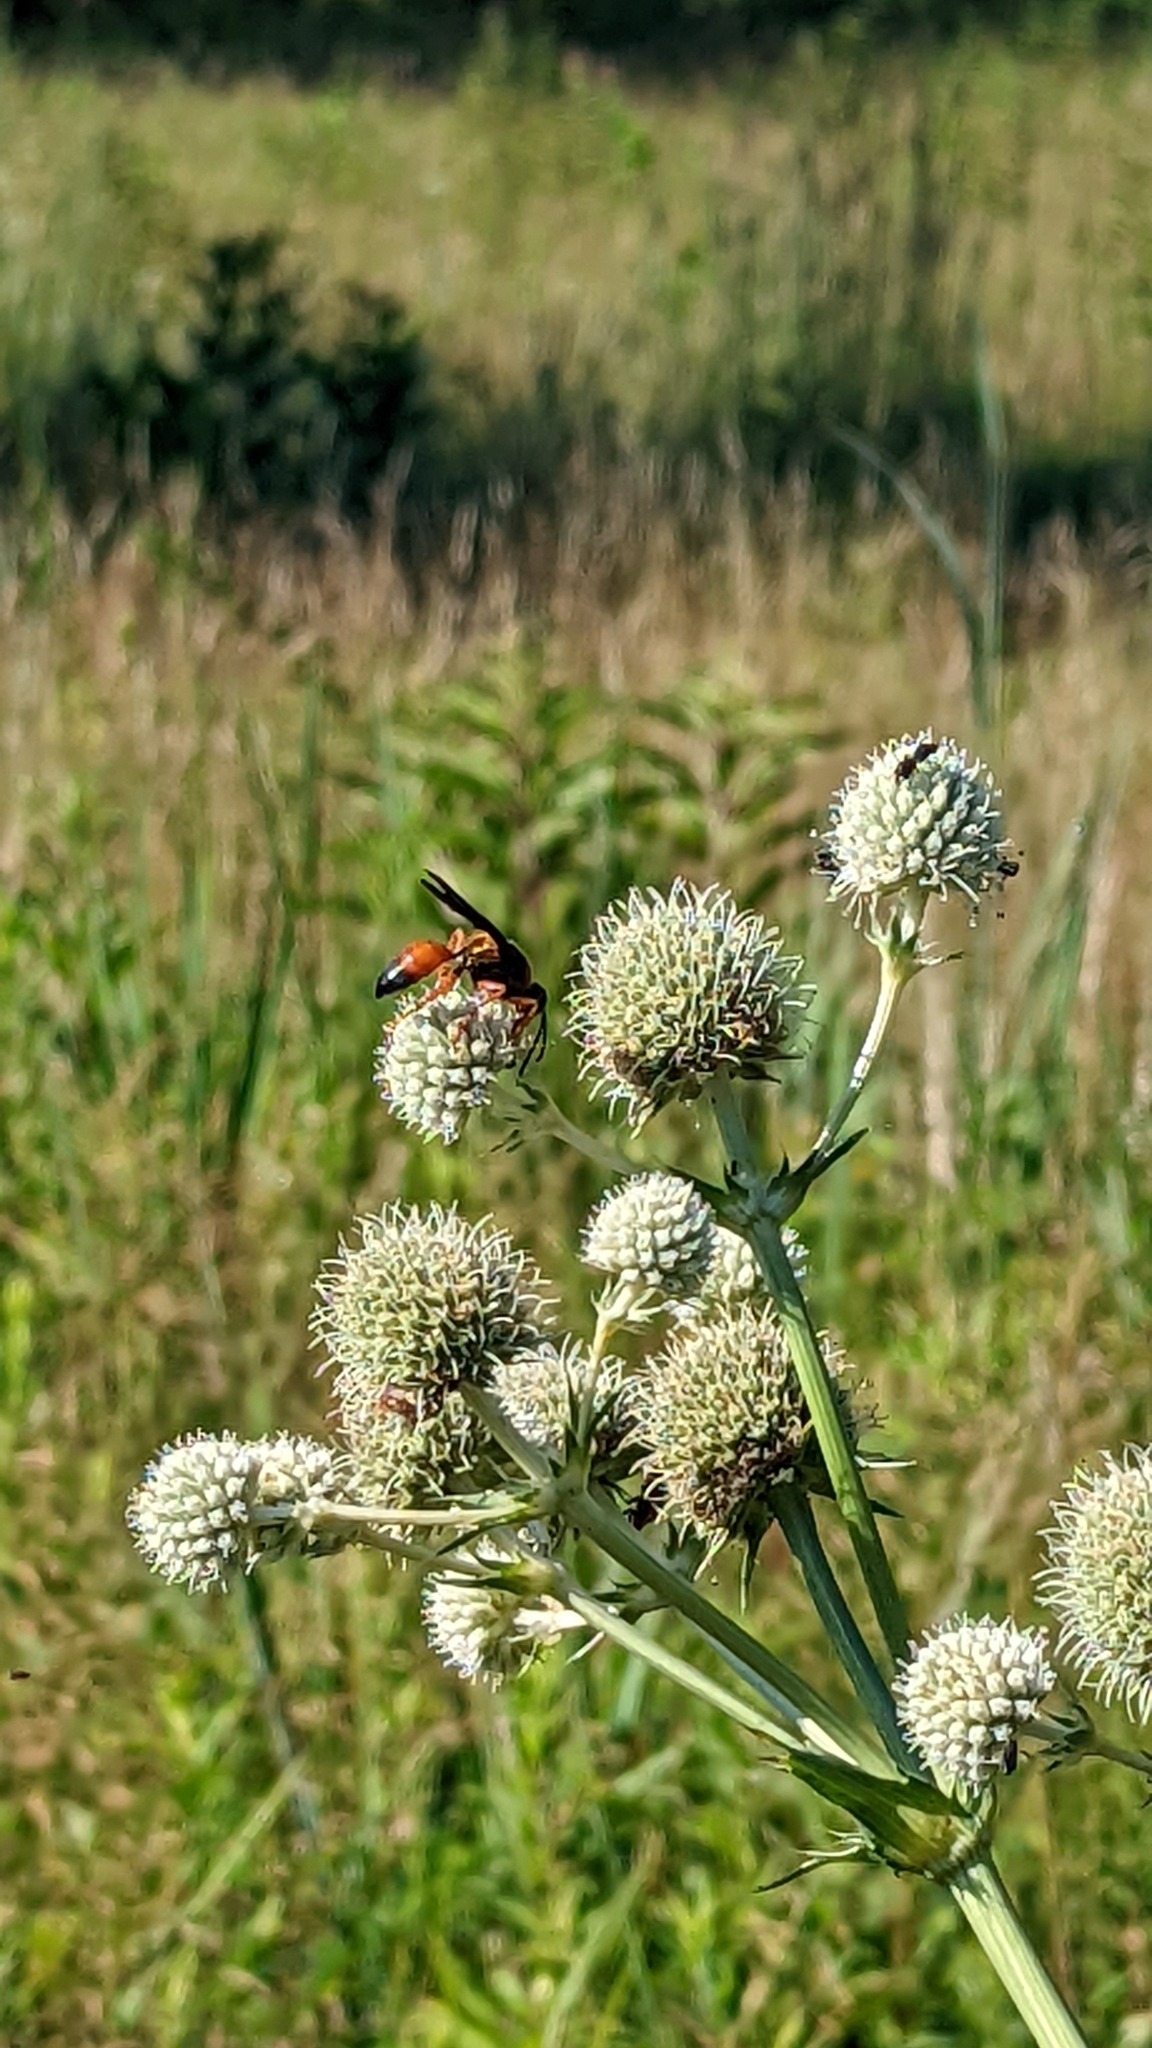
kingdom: Animalia
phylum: Arthropoda
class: Insecta
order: Hymenoptera
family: Sphecidae
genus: Sphex
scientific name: Sphex ichneumoneus
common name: Great golden digger wasp
